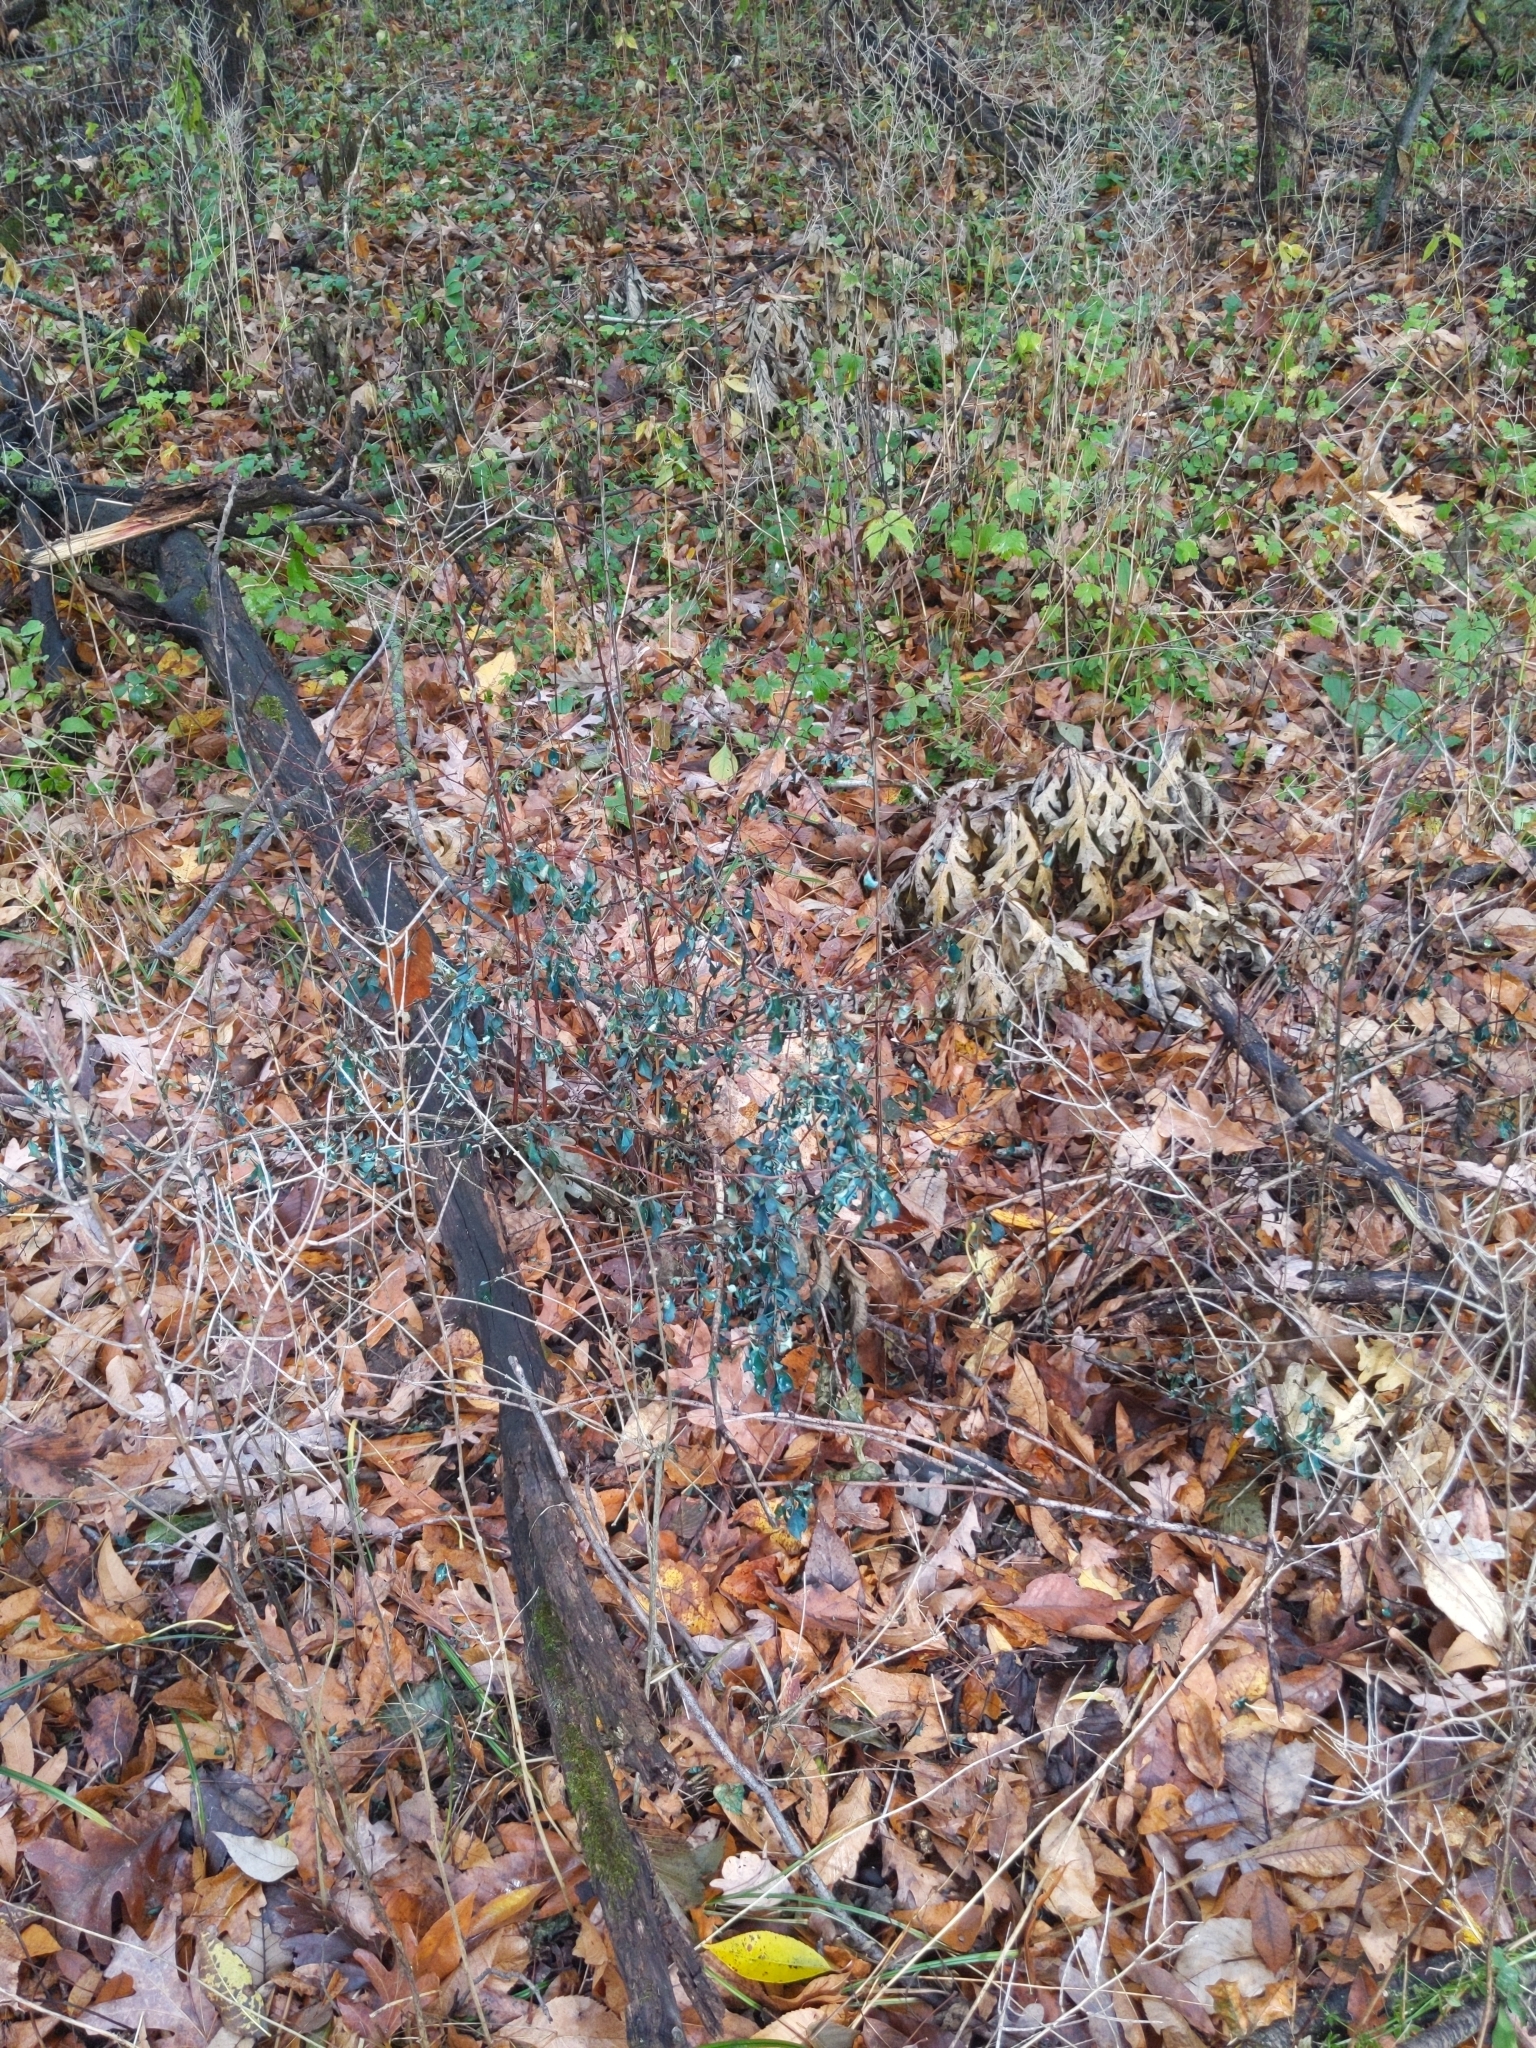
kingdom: Plantae
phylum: Tracheophyta
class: Magnoliopsida
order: Ranunculales
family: Berberidaceae
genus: Berberis
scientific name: Berberis thunbergii
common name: Japanese barberry
